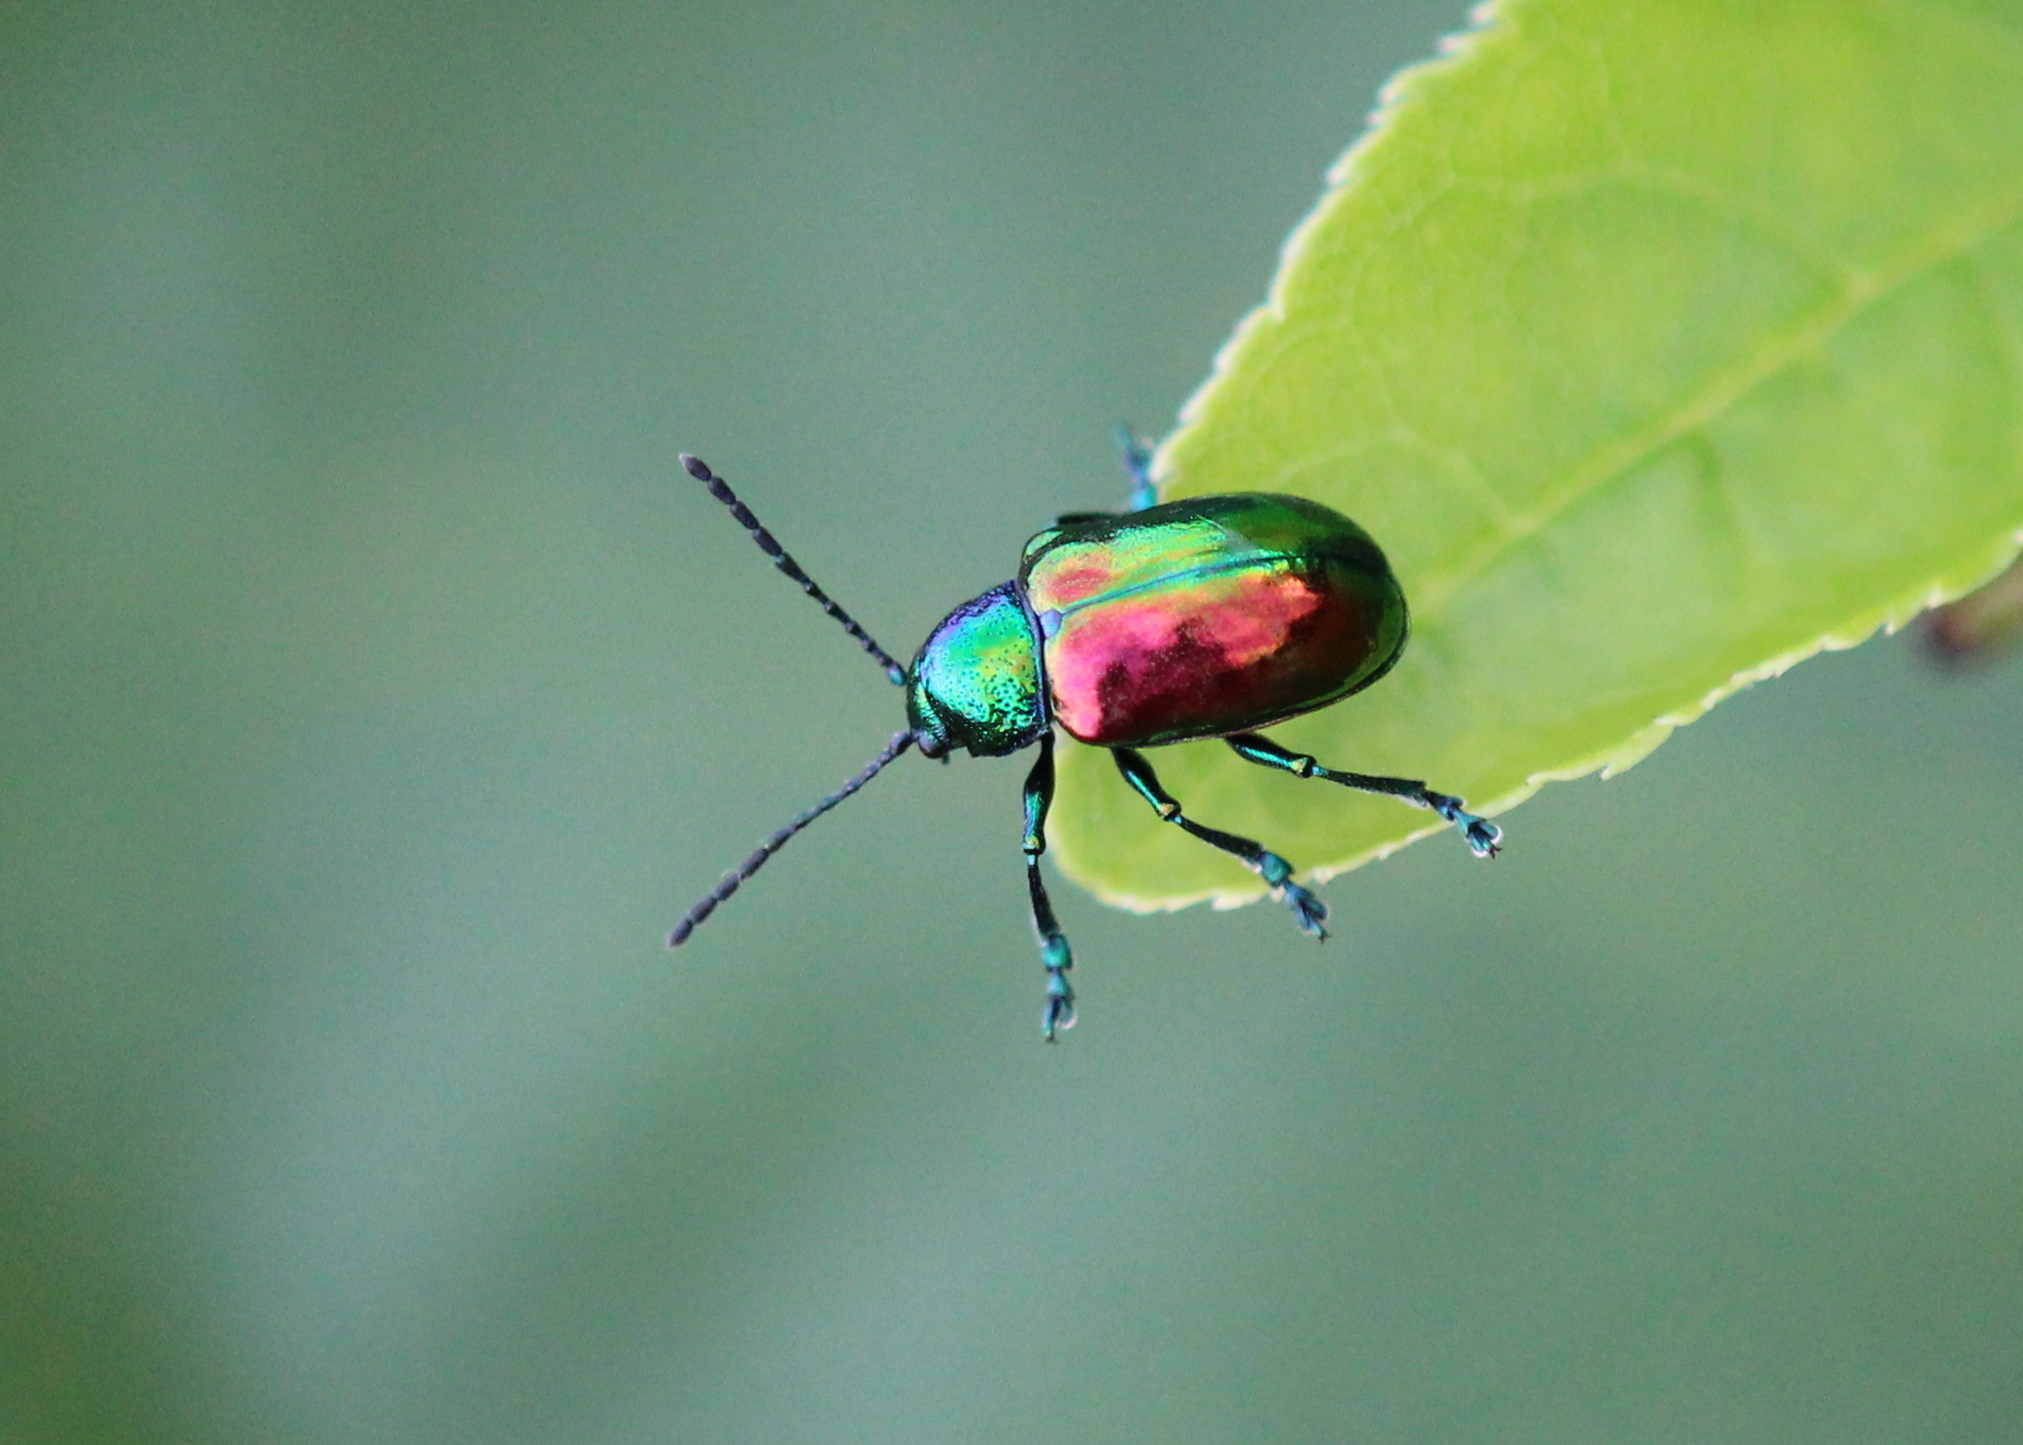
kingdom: Animalia
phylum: Arthropoda
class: Insecta
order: Coleoptera
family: Chrysomelidae
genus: Chrysochus
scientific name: Chrysochus auratus
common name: Dogbane leaf beetle
